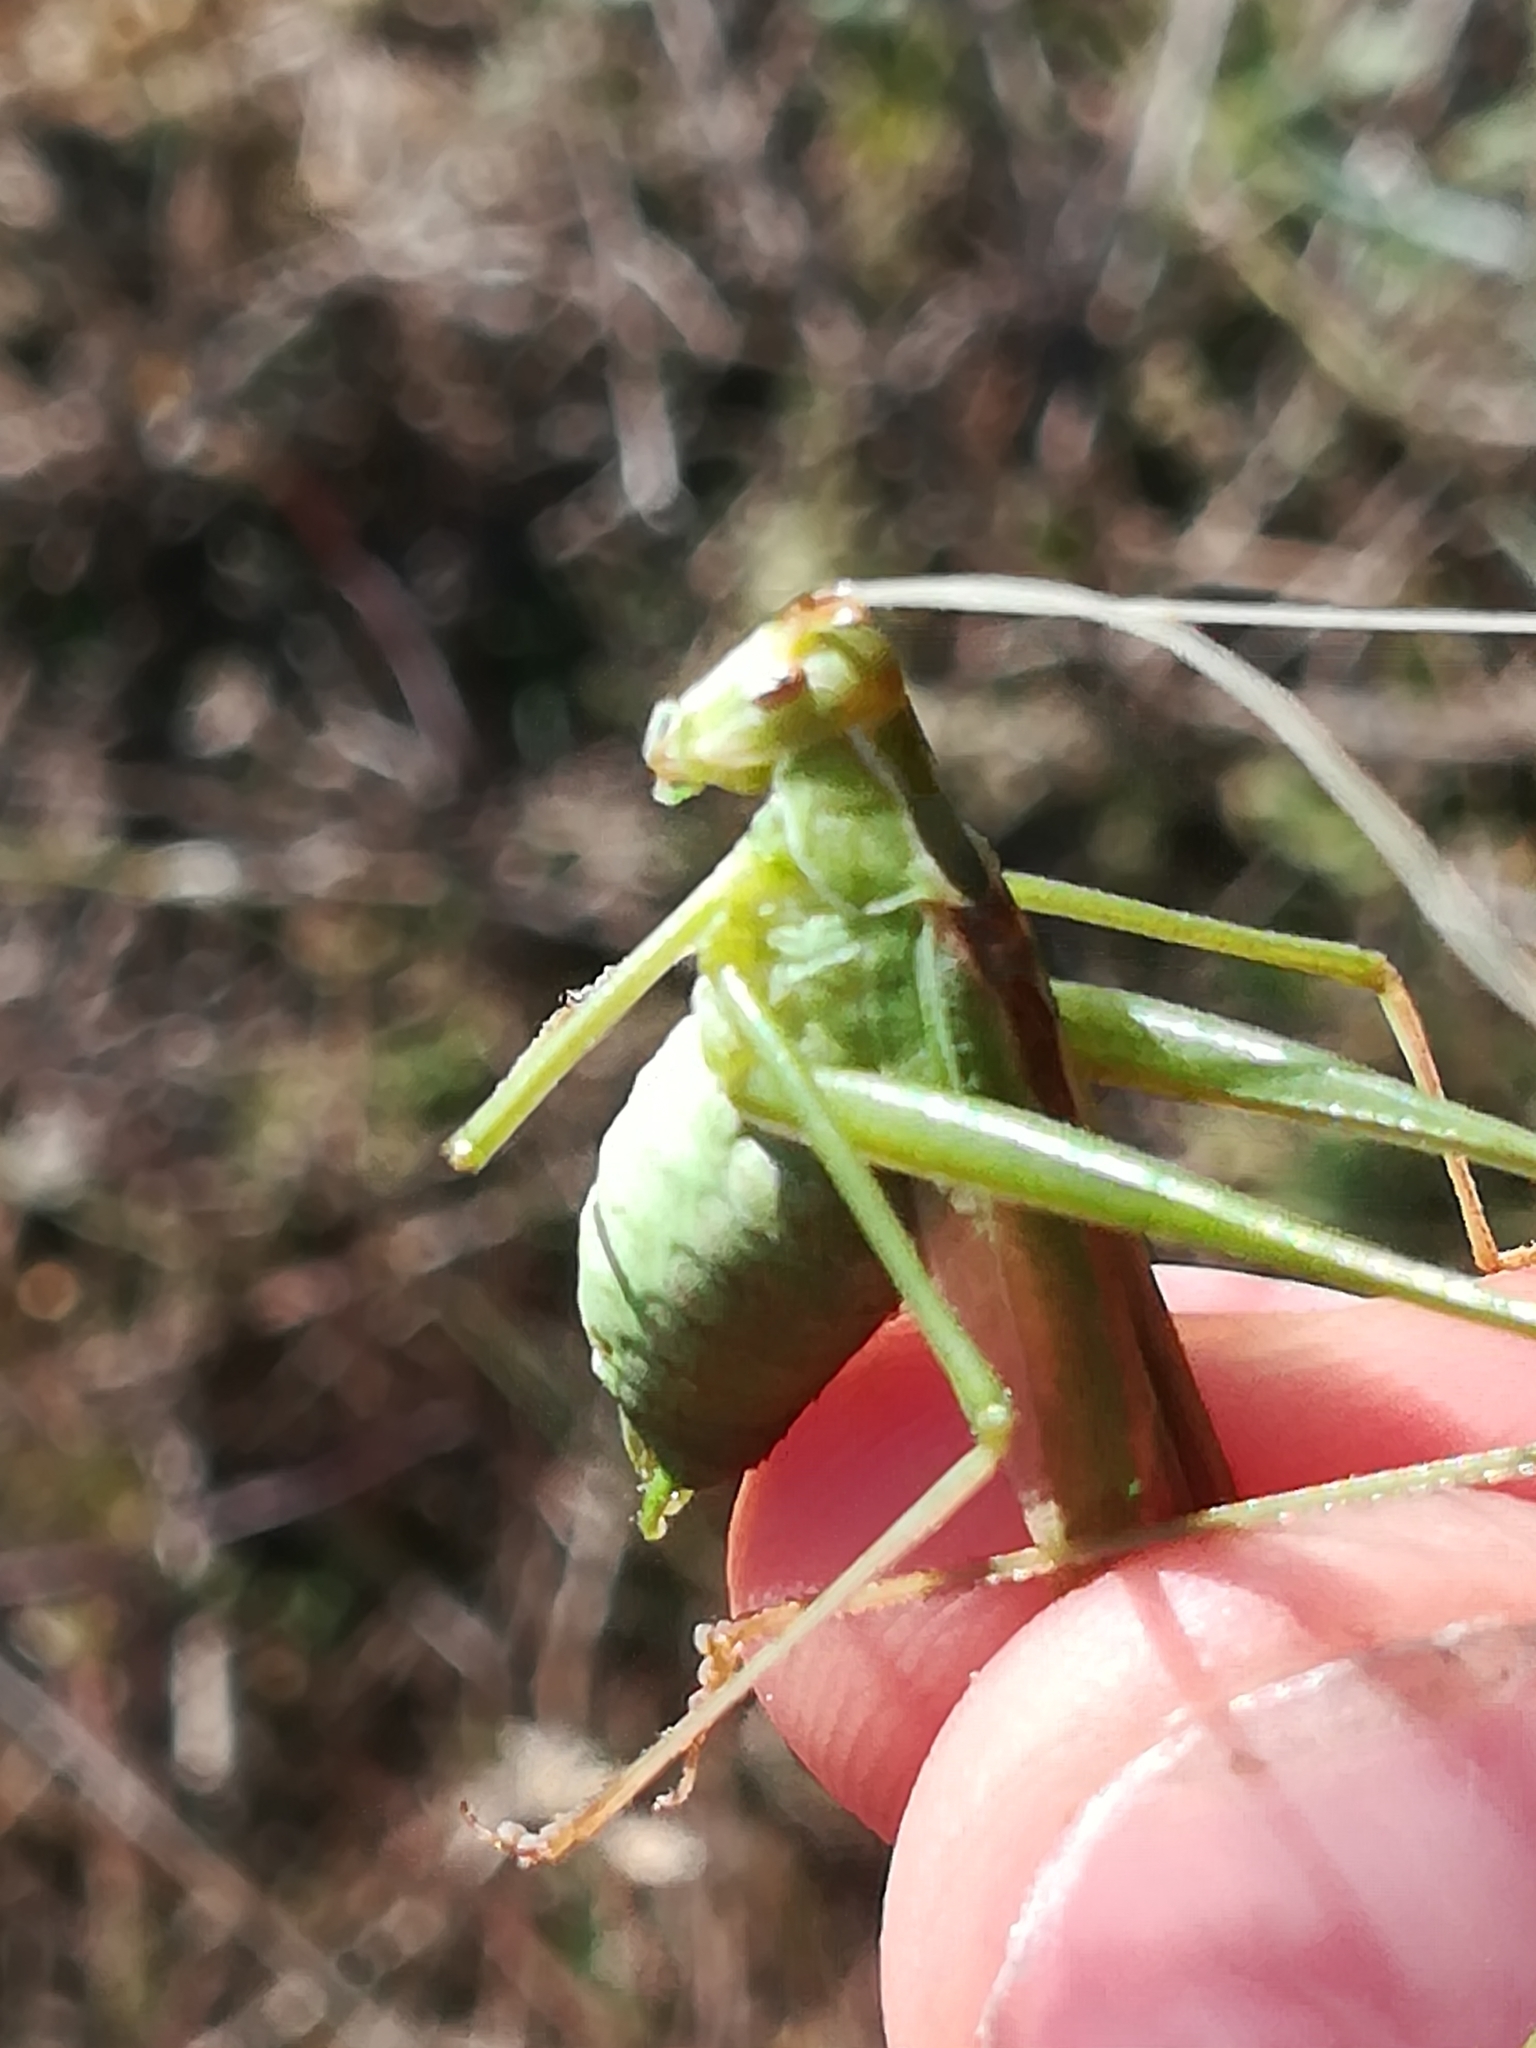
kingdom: Animalia
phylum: Arthropoda
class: Insecta
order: Orthoptera
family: Tettigoniidae
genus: Tylopsis
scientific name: Tylopsis lilifolia
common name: Lily bush-cricket
